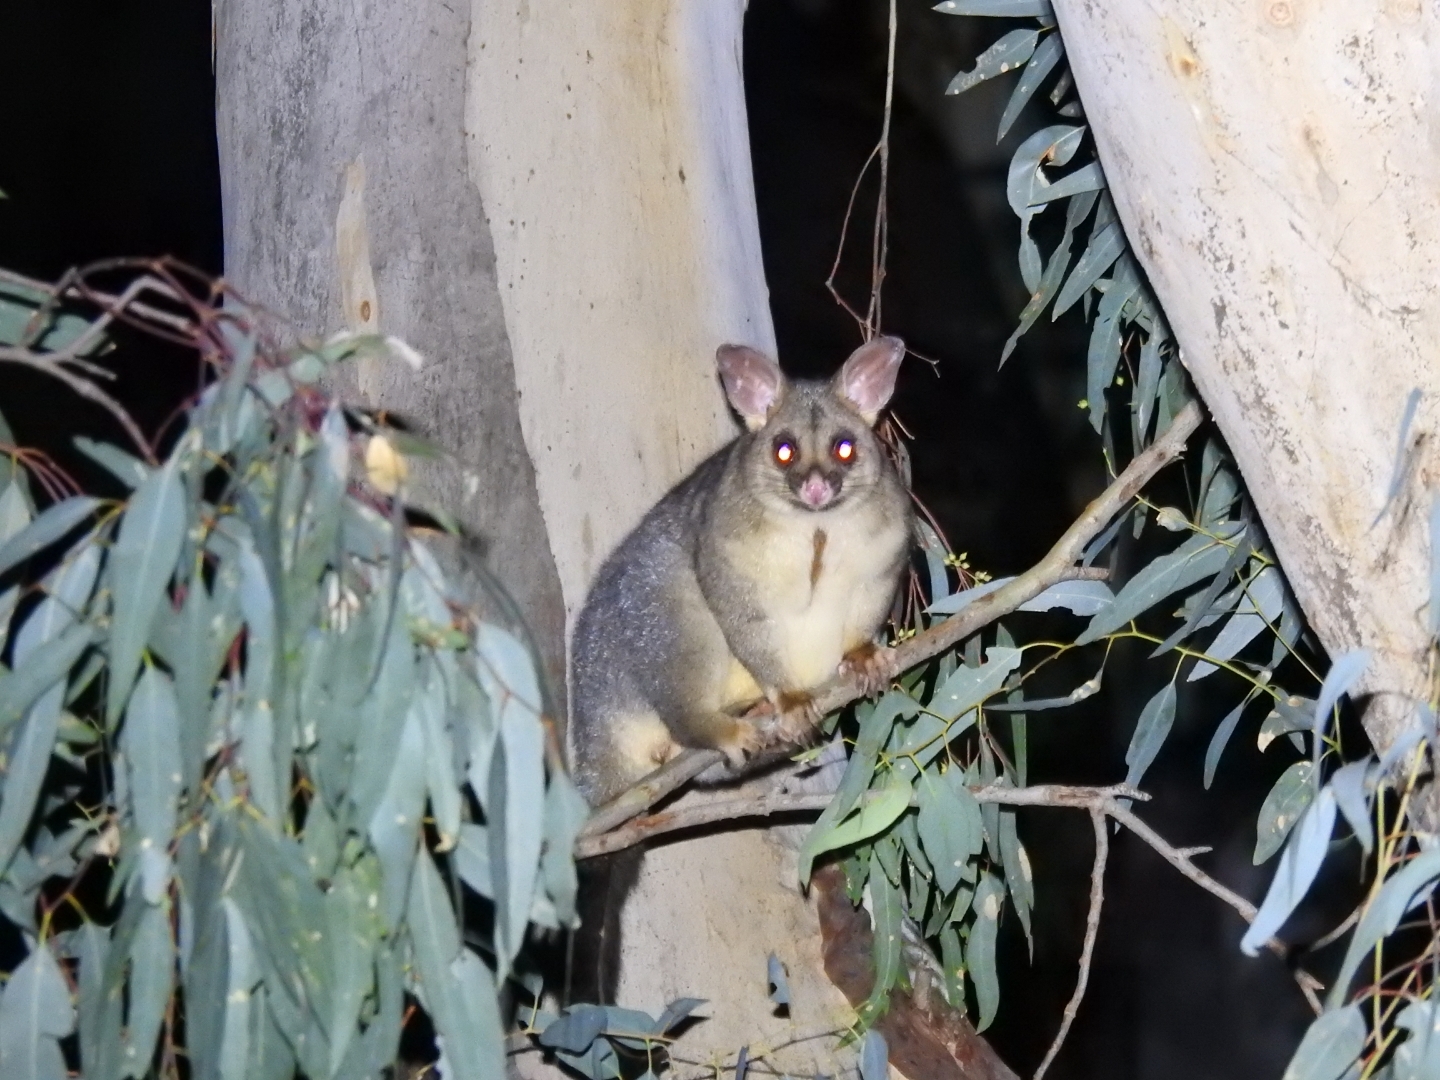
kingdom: Animalia
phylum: Chordata
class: Mammalia
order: Diprotodontia
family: Phalangeridae
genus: Trichosurus
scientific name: Trichosurus vulpecula
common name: Common brushtail
